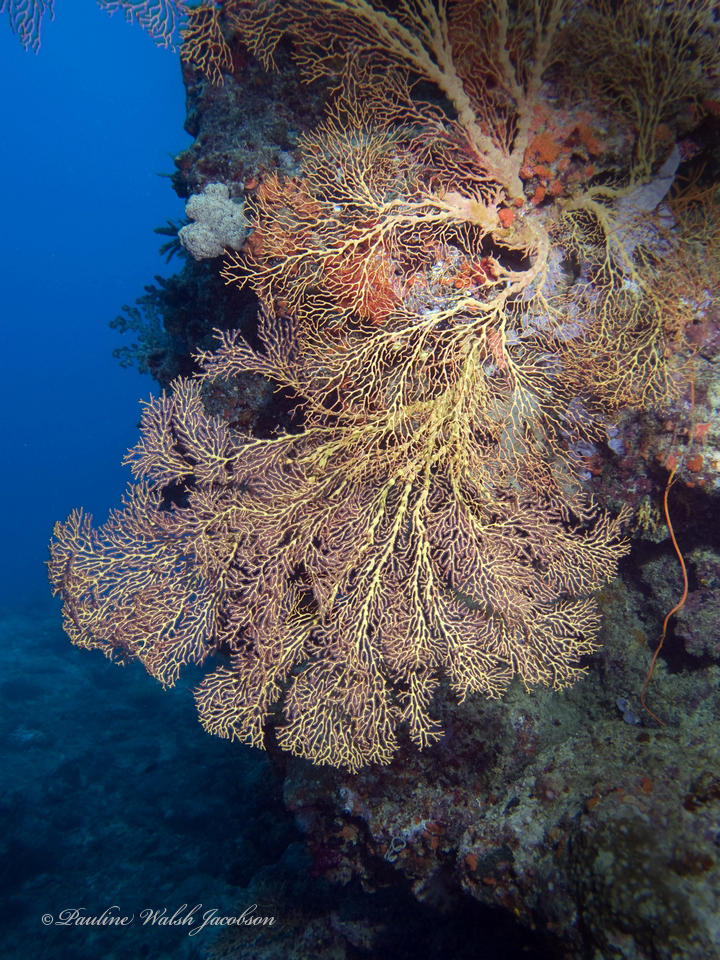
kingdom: Animalia
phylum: Cnidaria
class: Anthozoa
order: Malacalcyonacea
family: Melithaeidae
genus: Melithaea
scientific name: Melithaea ochracea
